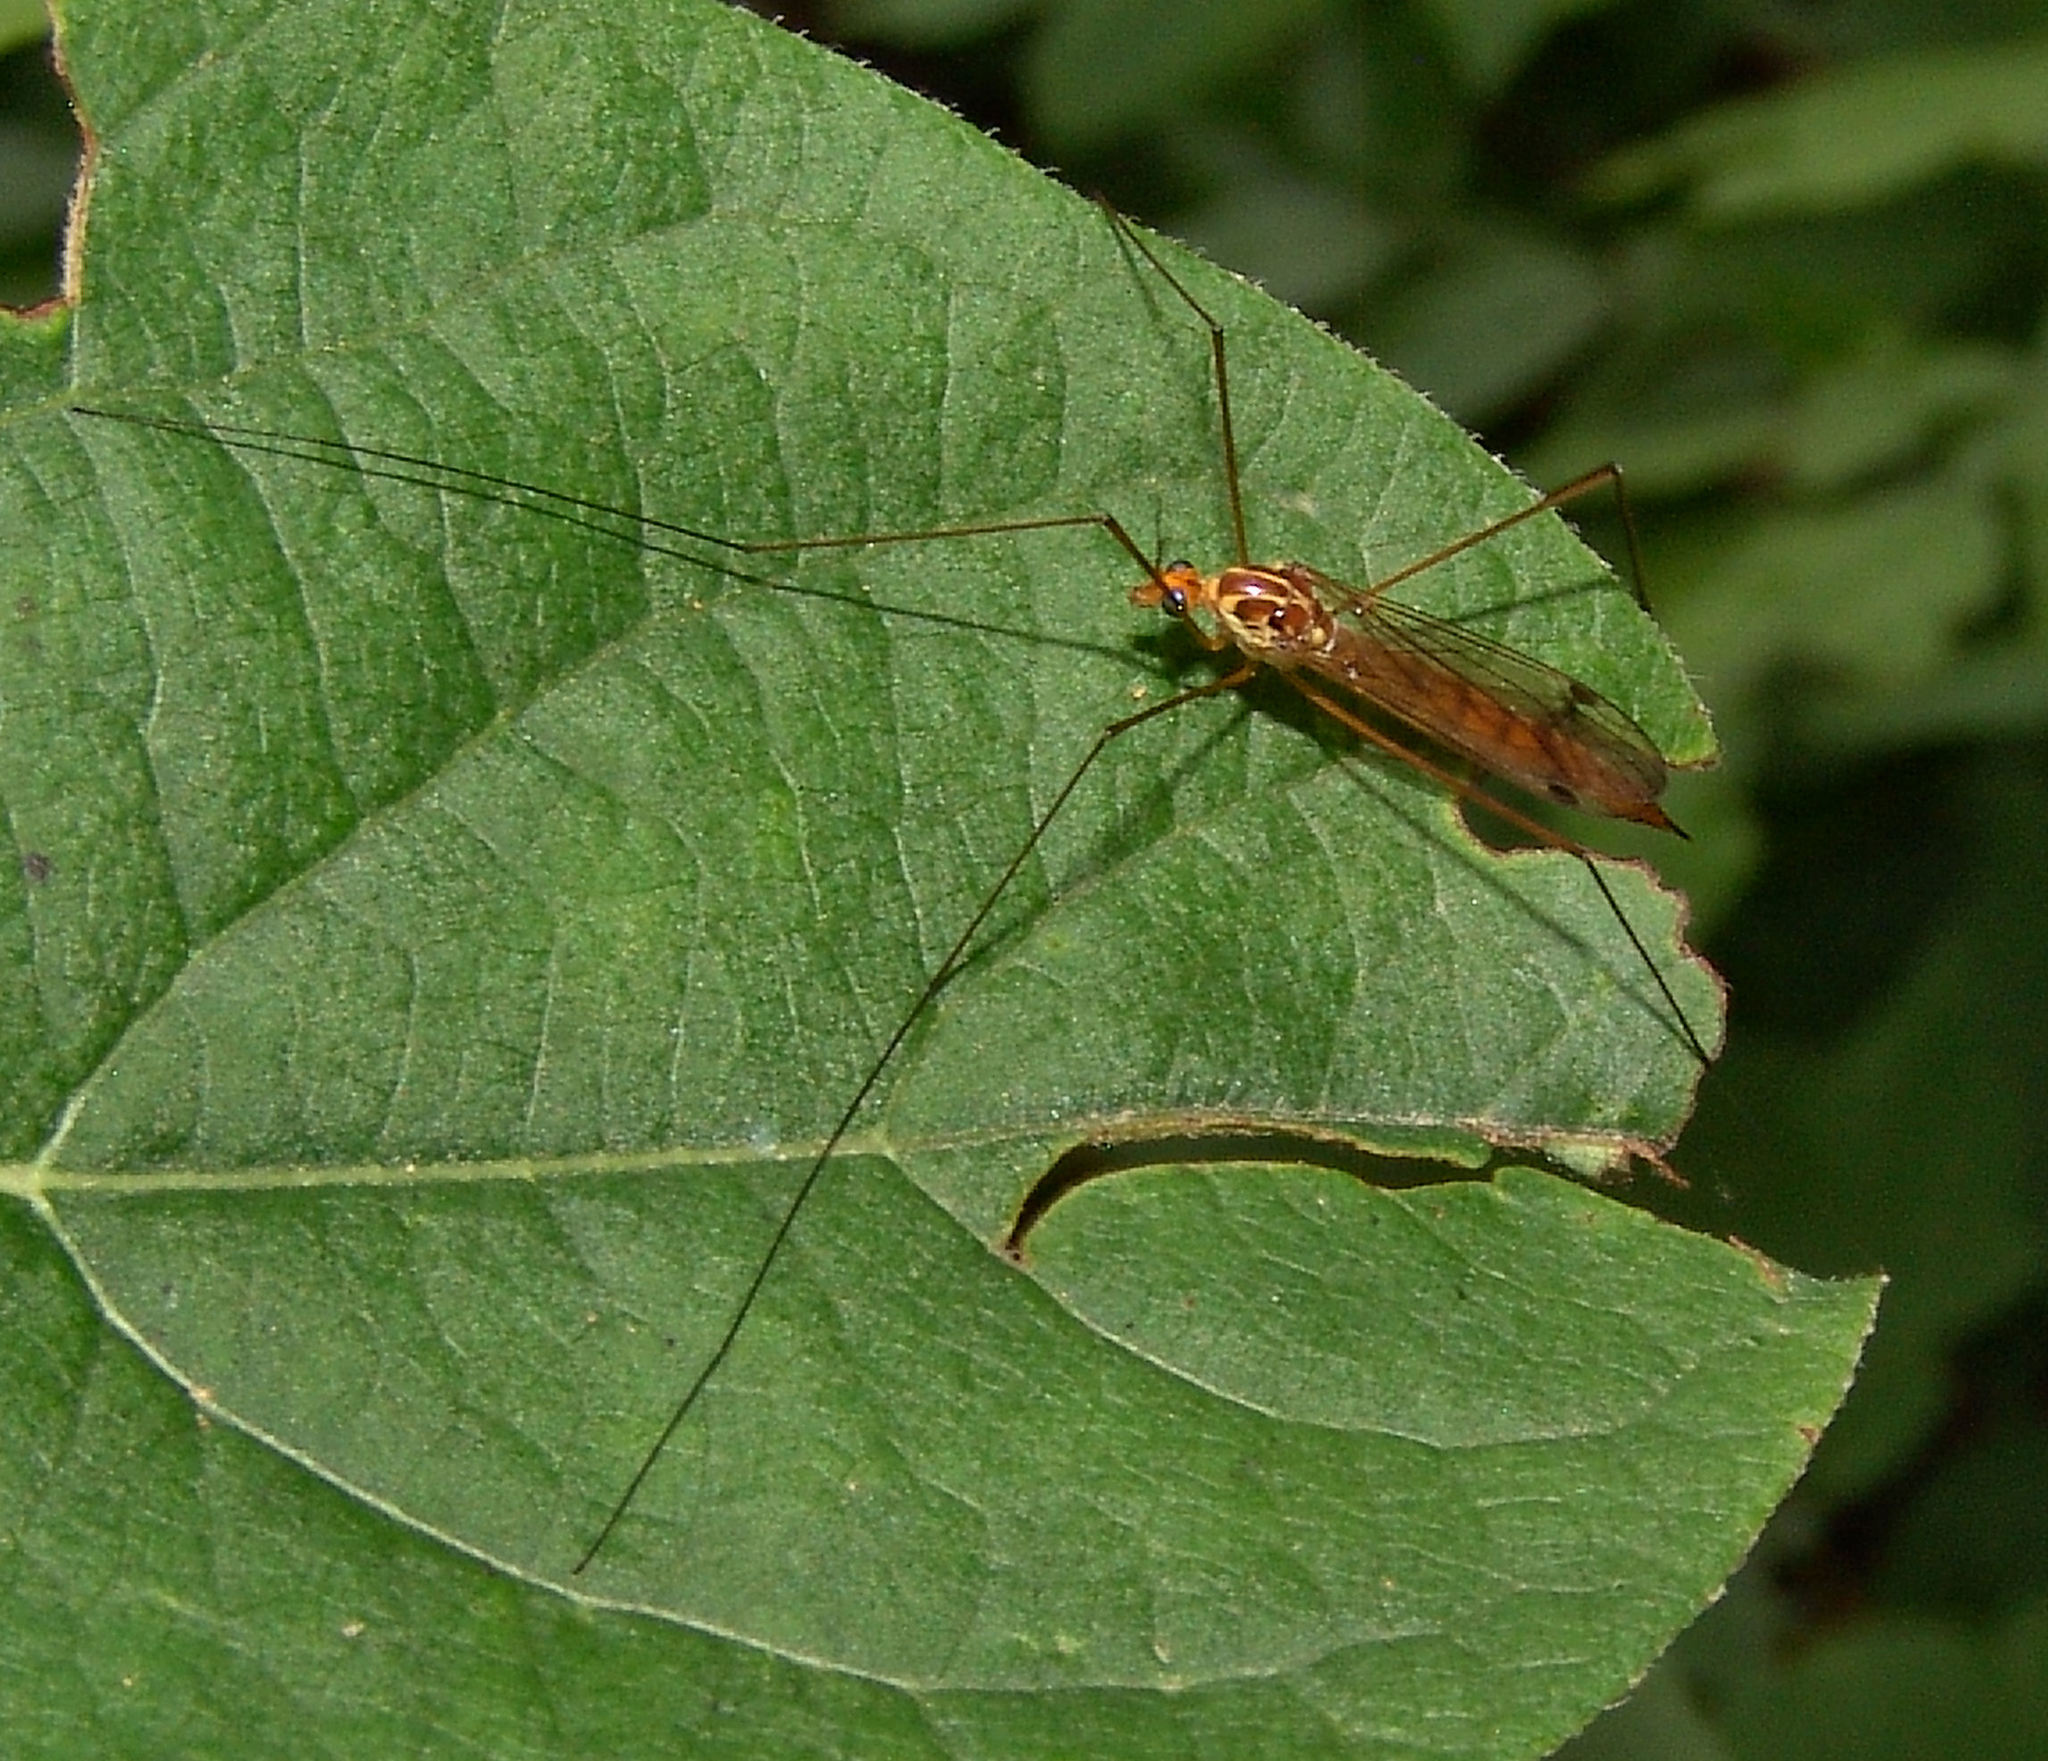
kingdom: Animalia
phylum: Arthropoda
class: Insecta
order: Diptera
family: Tipulidae
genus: Nephrotoma
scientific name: Nephrotoma
